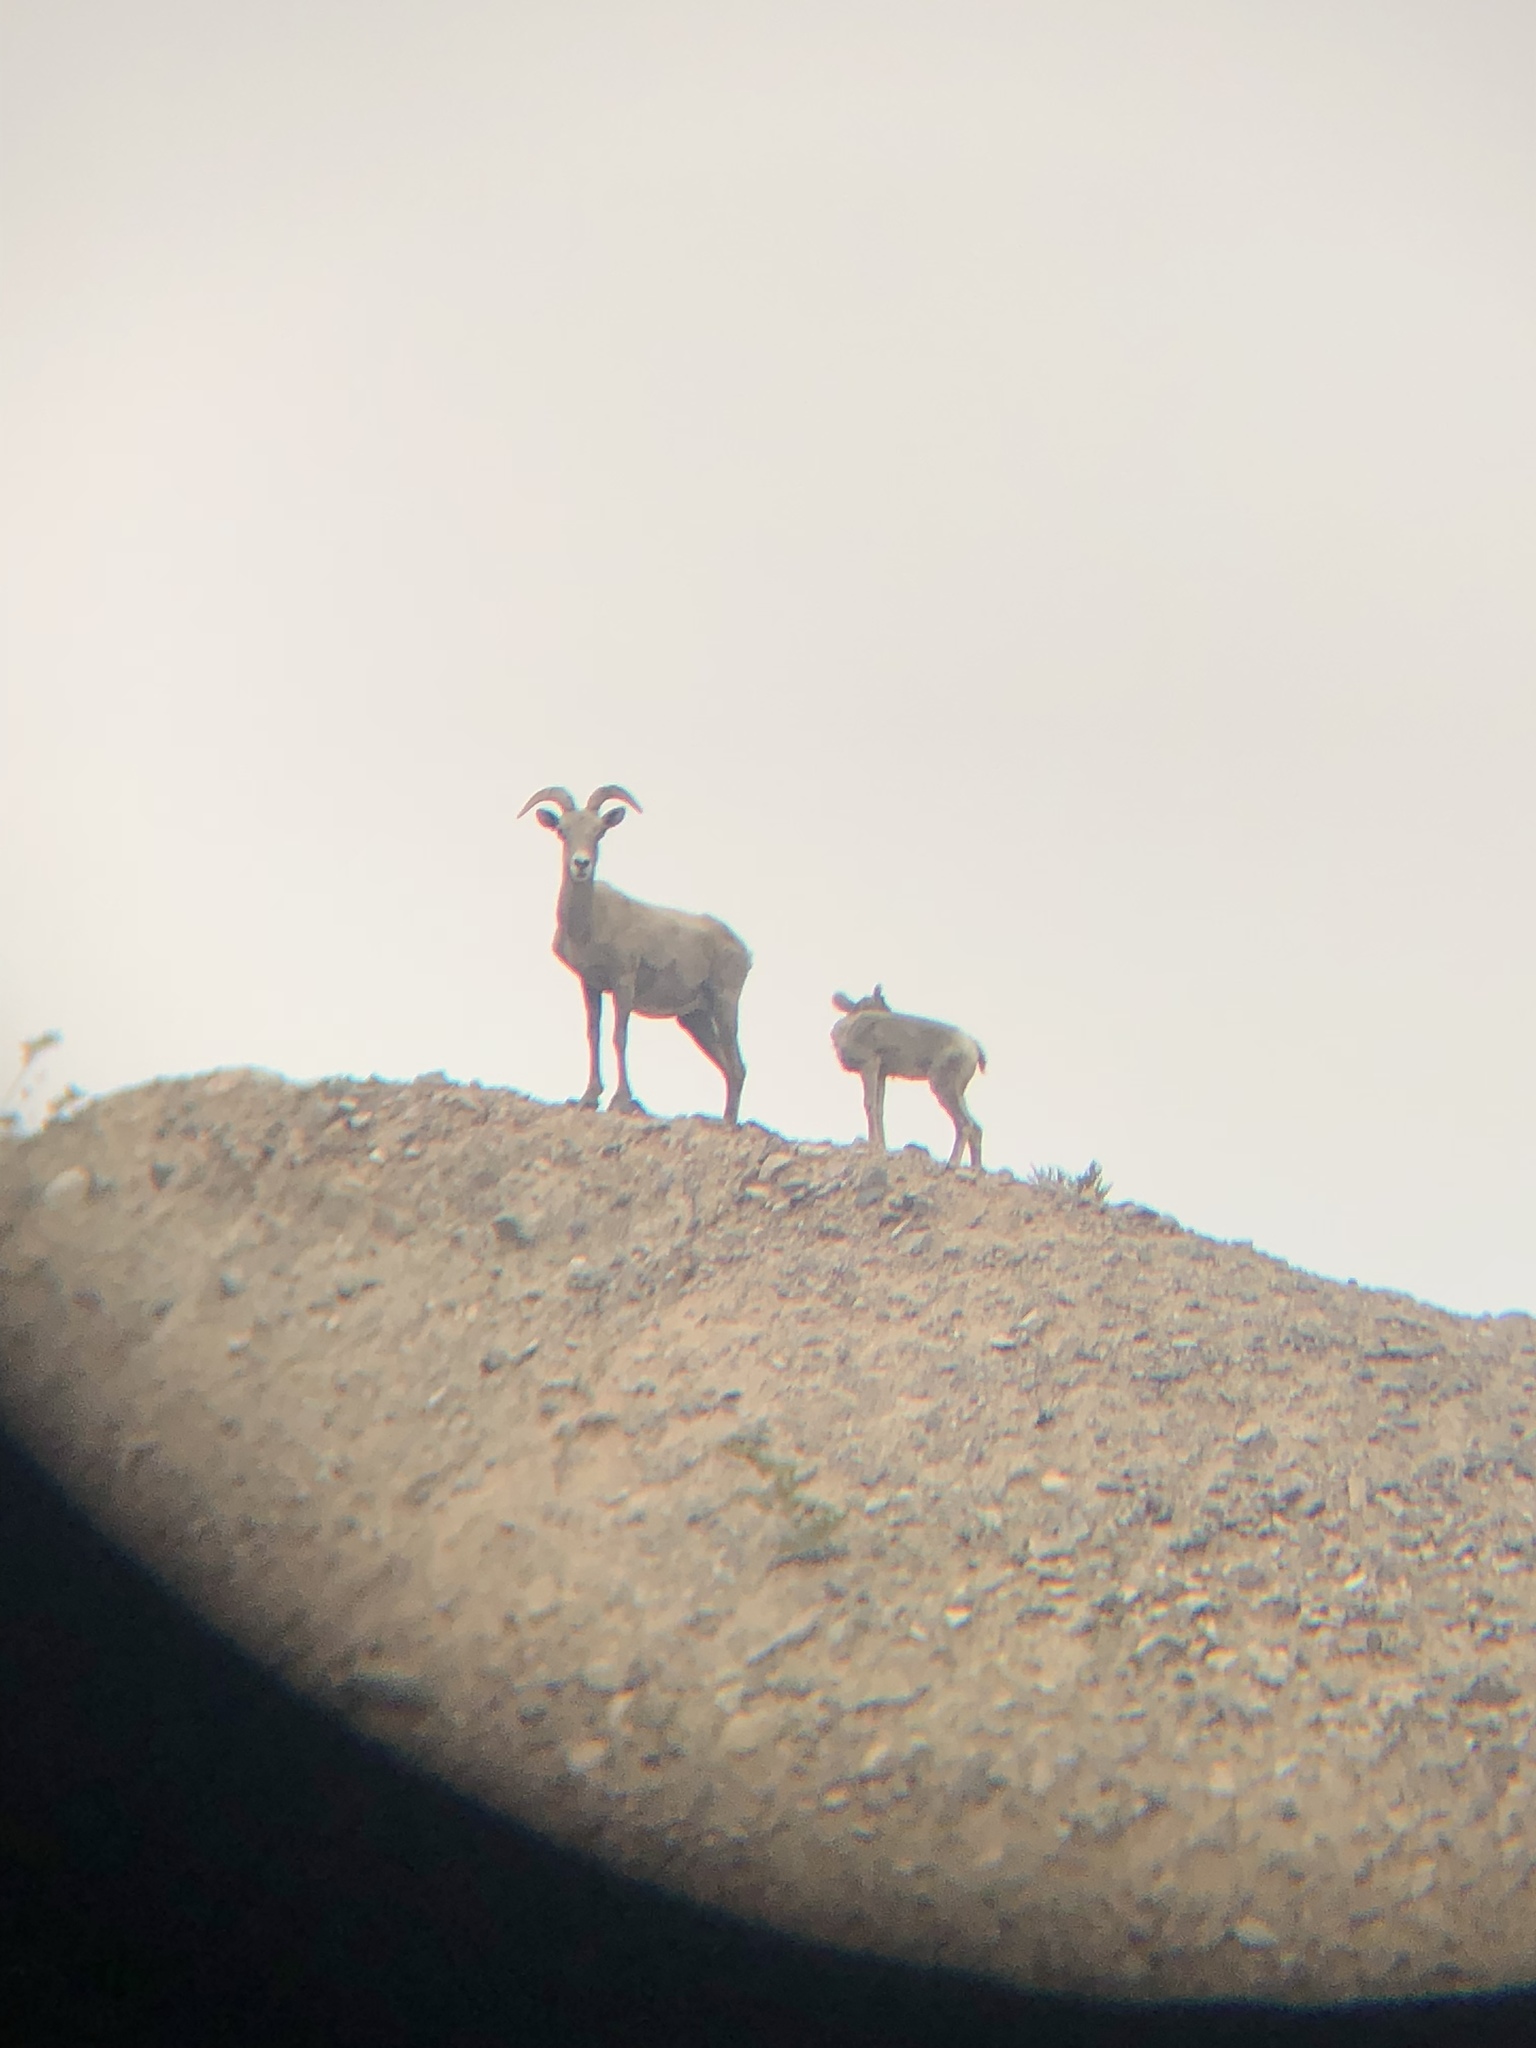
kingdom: Animalia
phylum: Chordata
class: Mammalia
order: Artiodactyla
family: Bovidae
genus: Ovis
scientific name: Ovis canadensis
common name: Bighorn sheep
